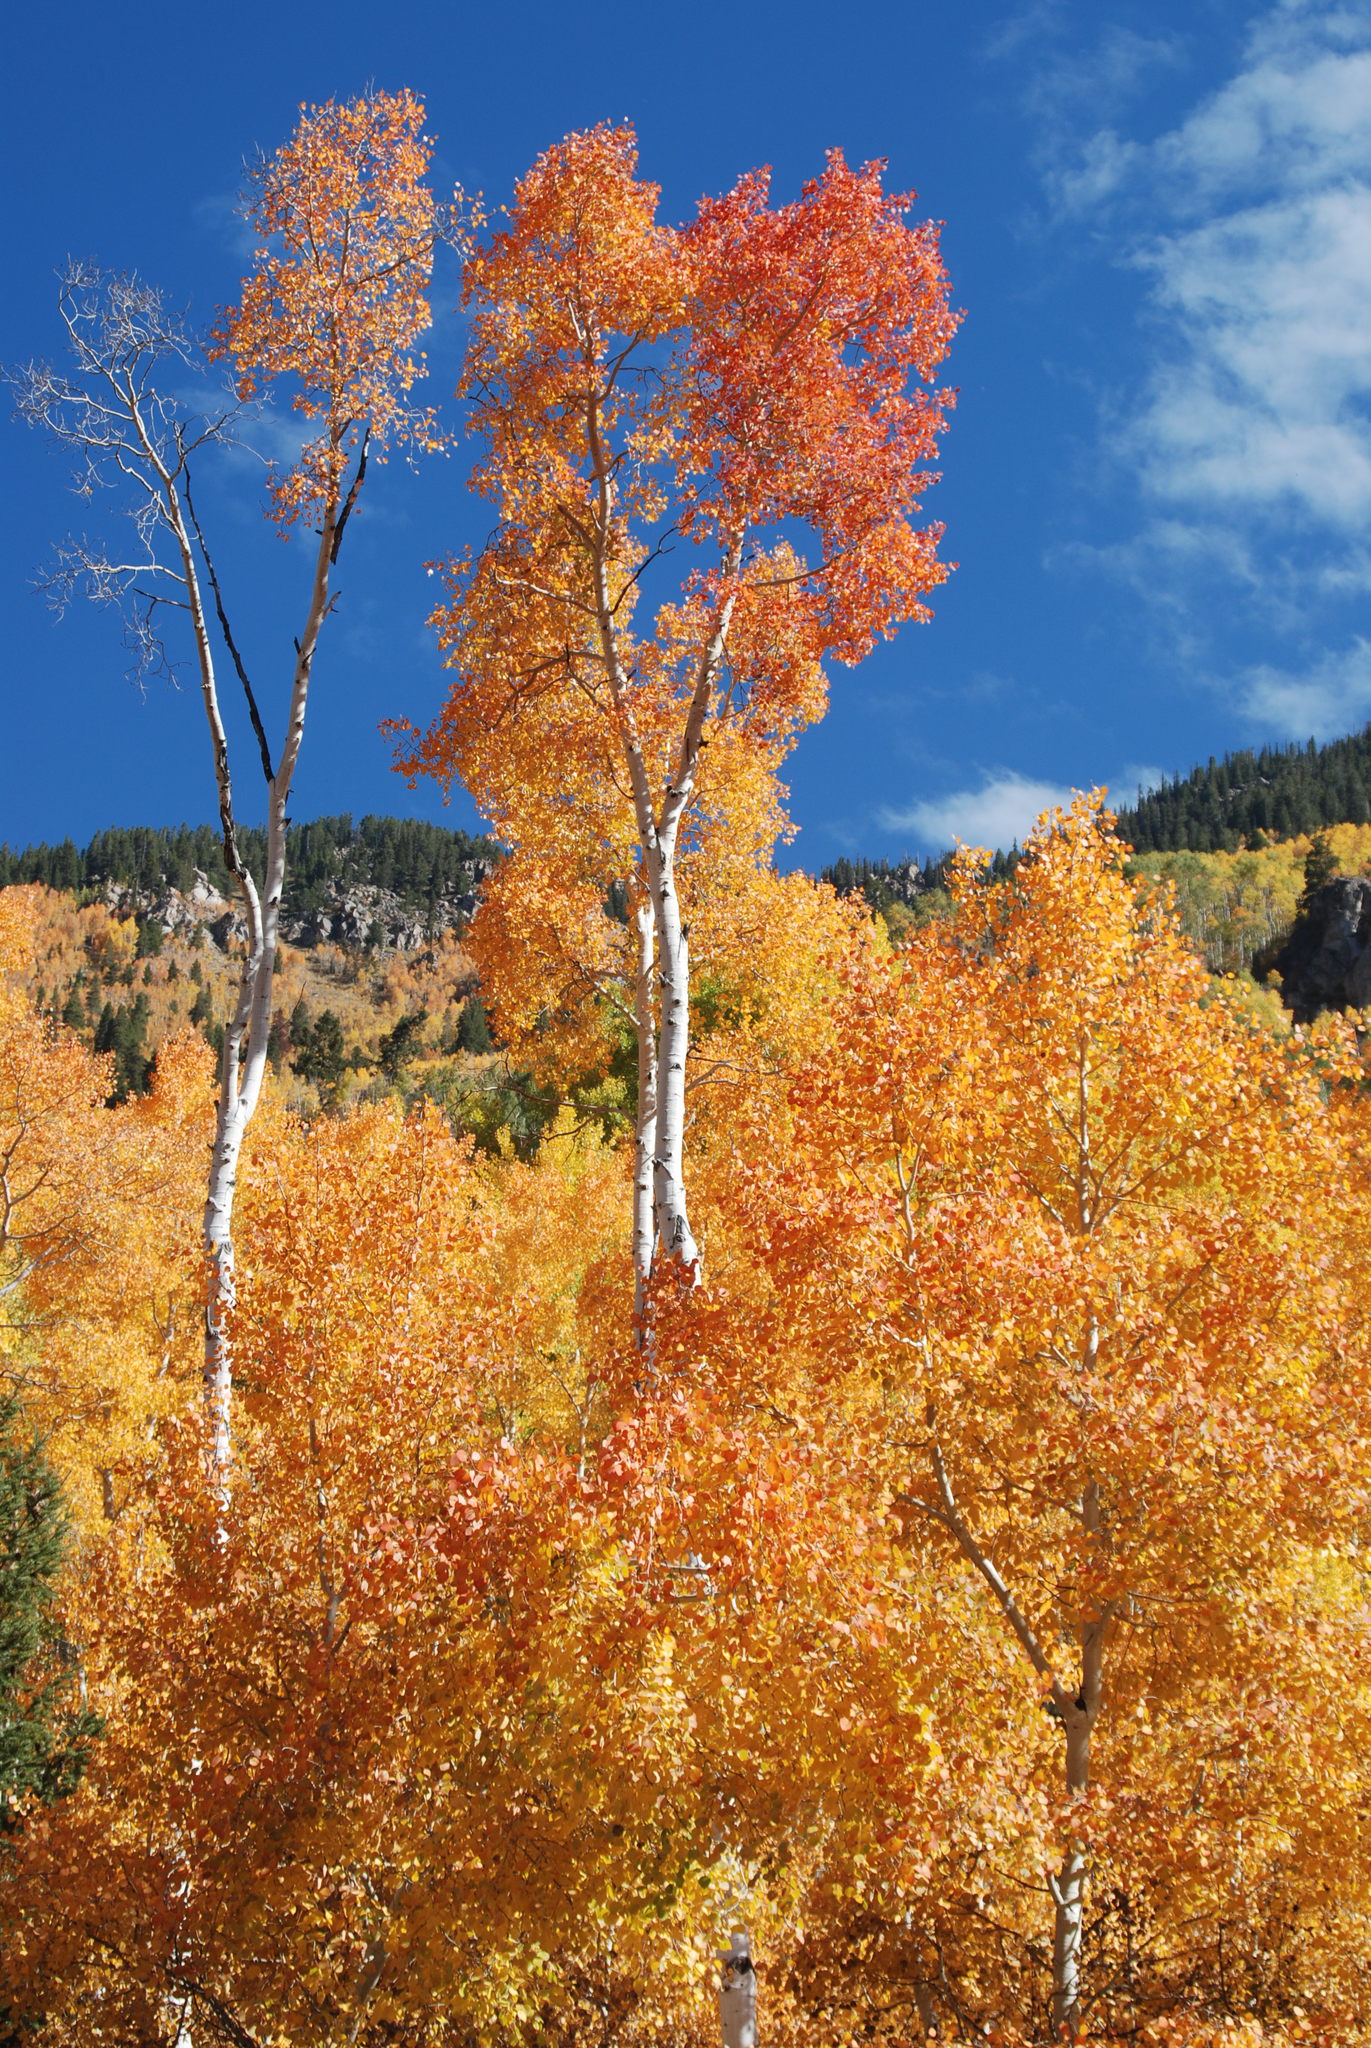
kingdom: Plantae
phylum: Tracheophyta
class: Magnoliopsida
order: Malpighiales
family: Salicaceae
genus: Populus
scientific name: Populus tremuloides
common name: Quaking aspen
